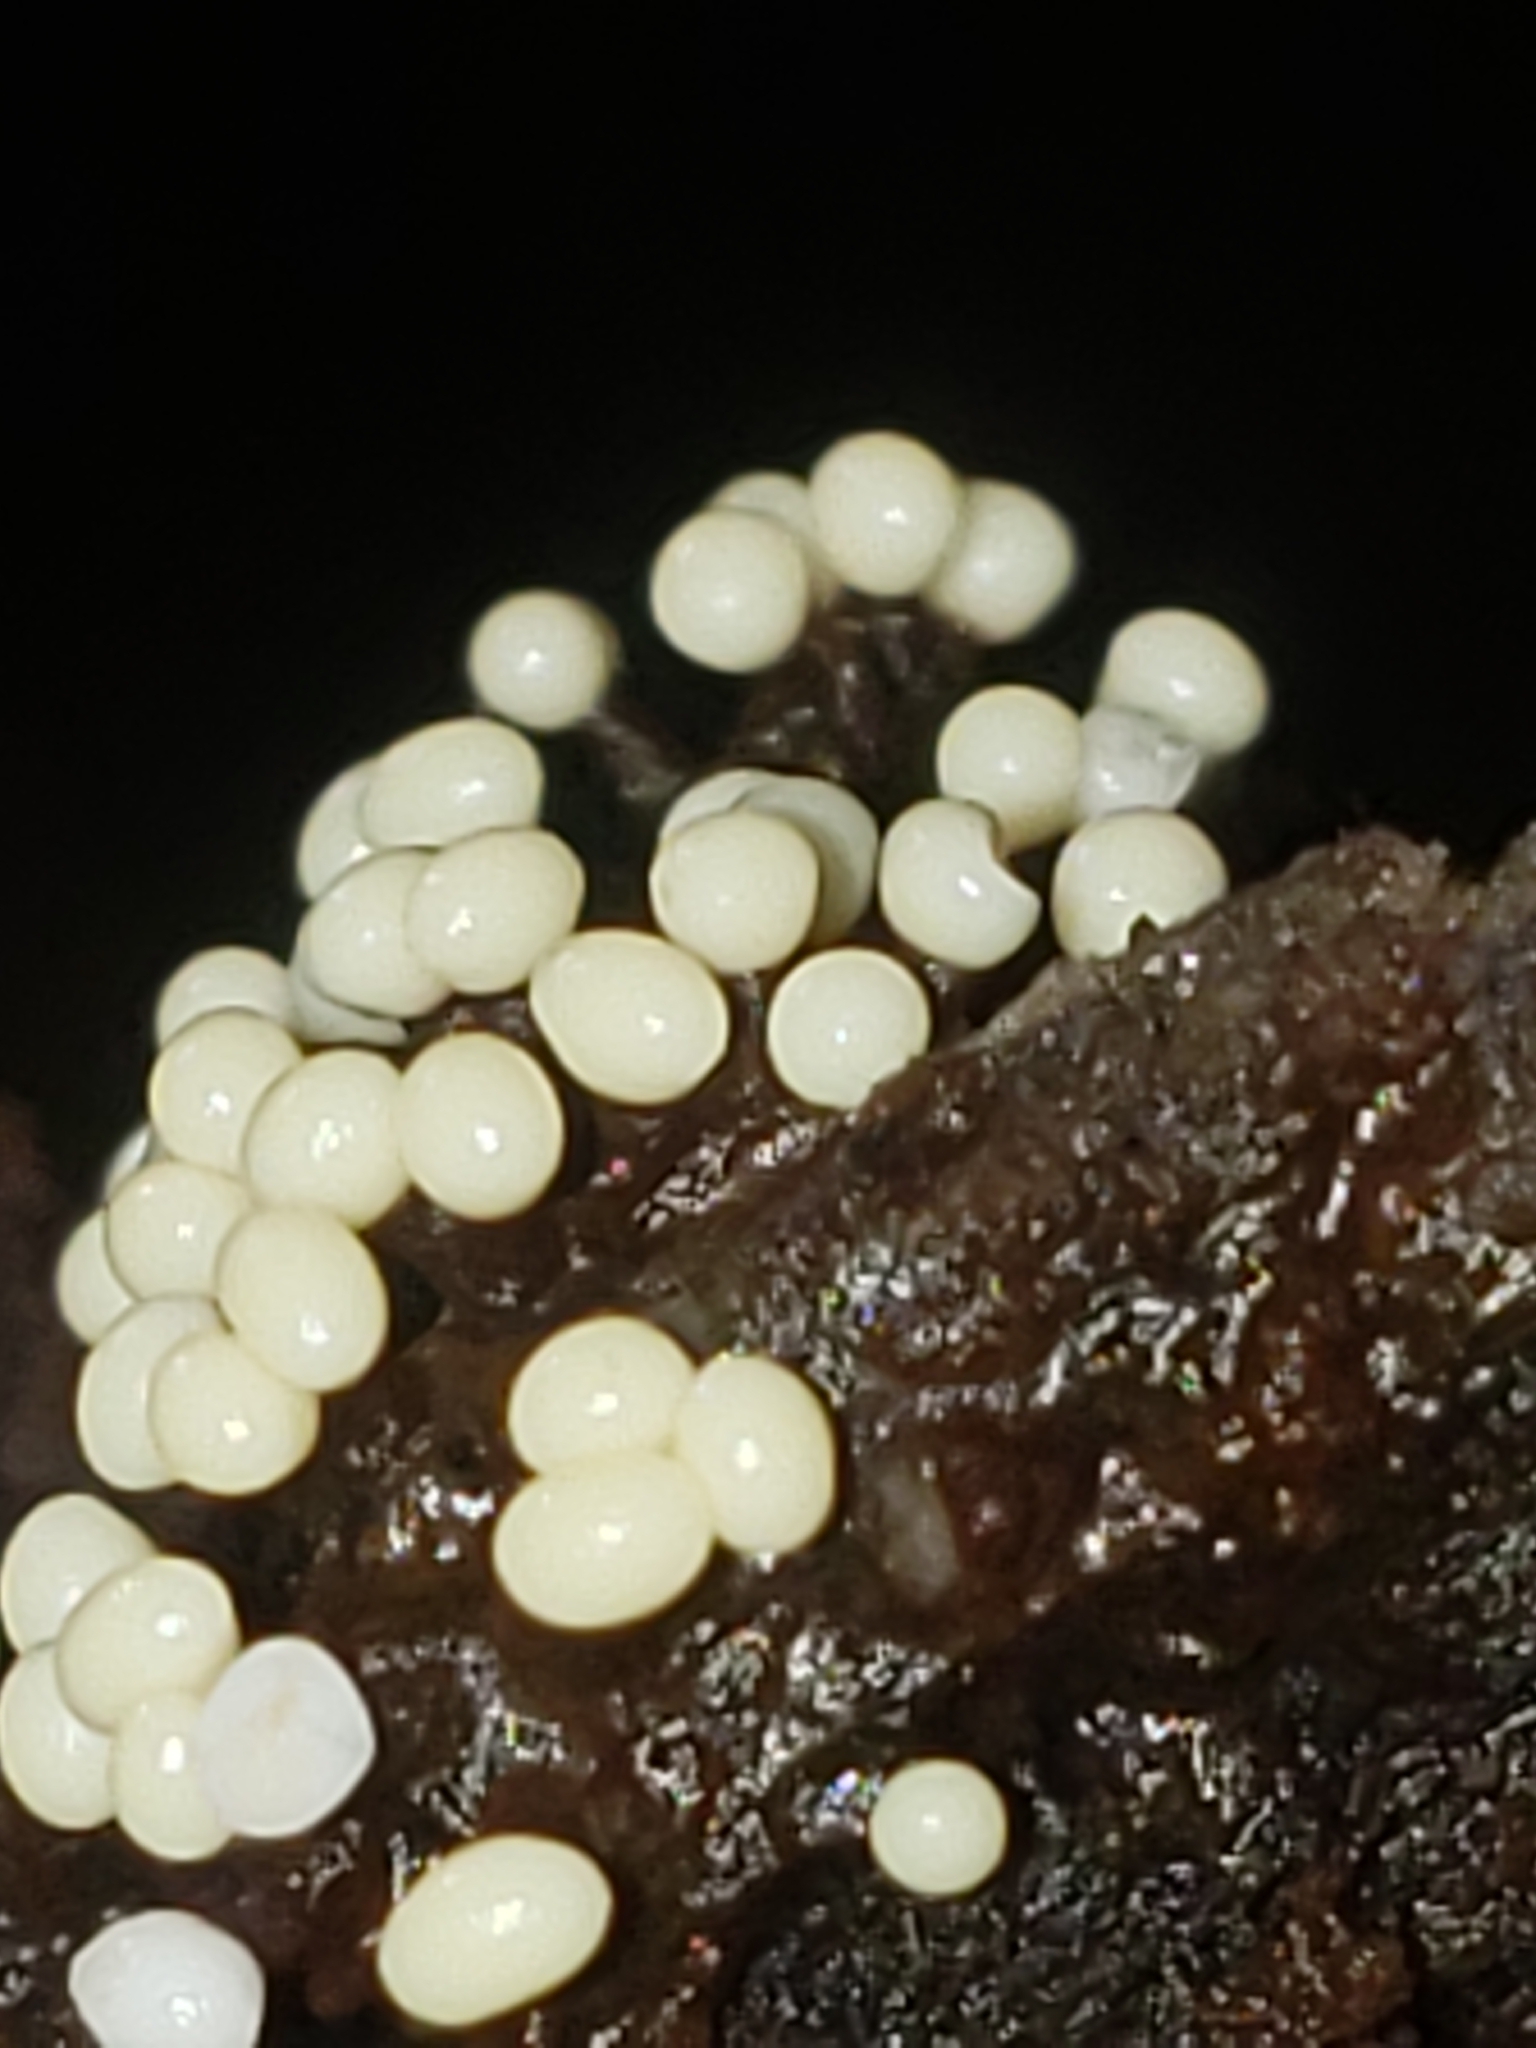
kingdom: Protozoa
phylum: Mycetozoa
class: Myxomycetes
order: Trichiales
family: Trichiaceae
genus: Trichia
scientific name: Trichia varia
